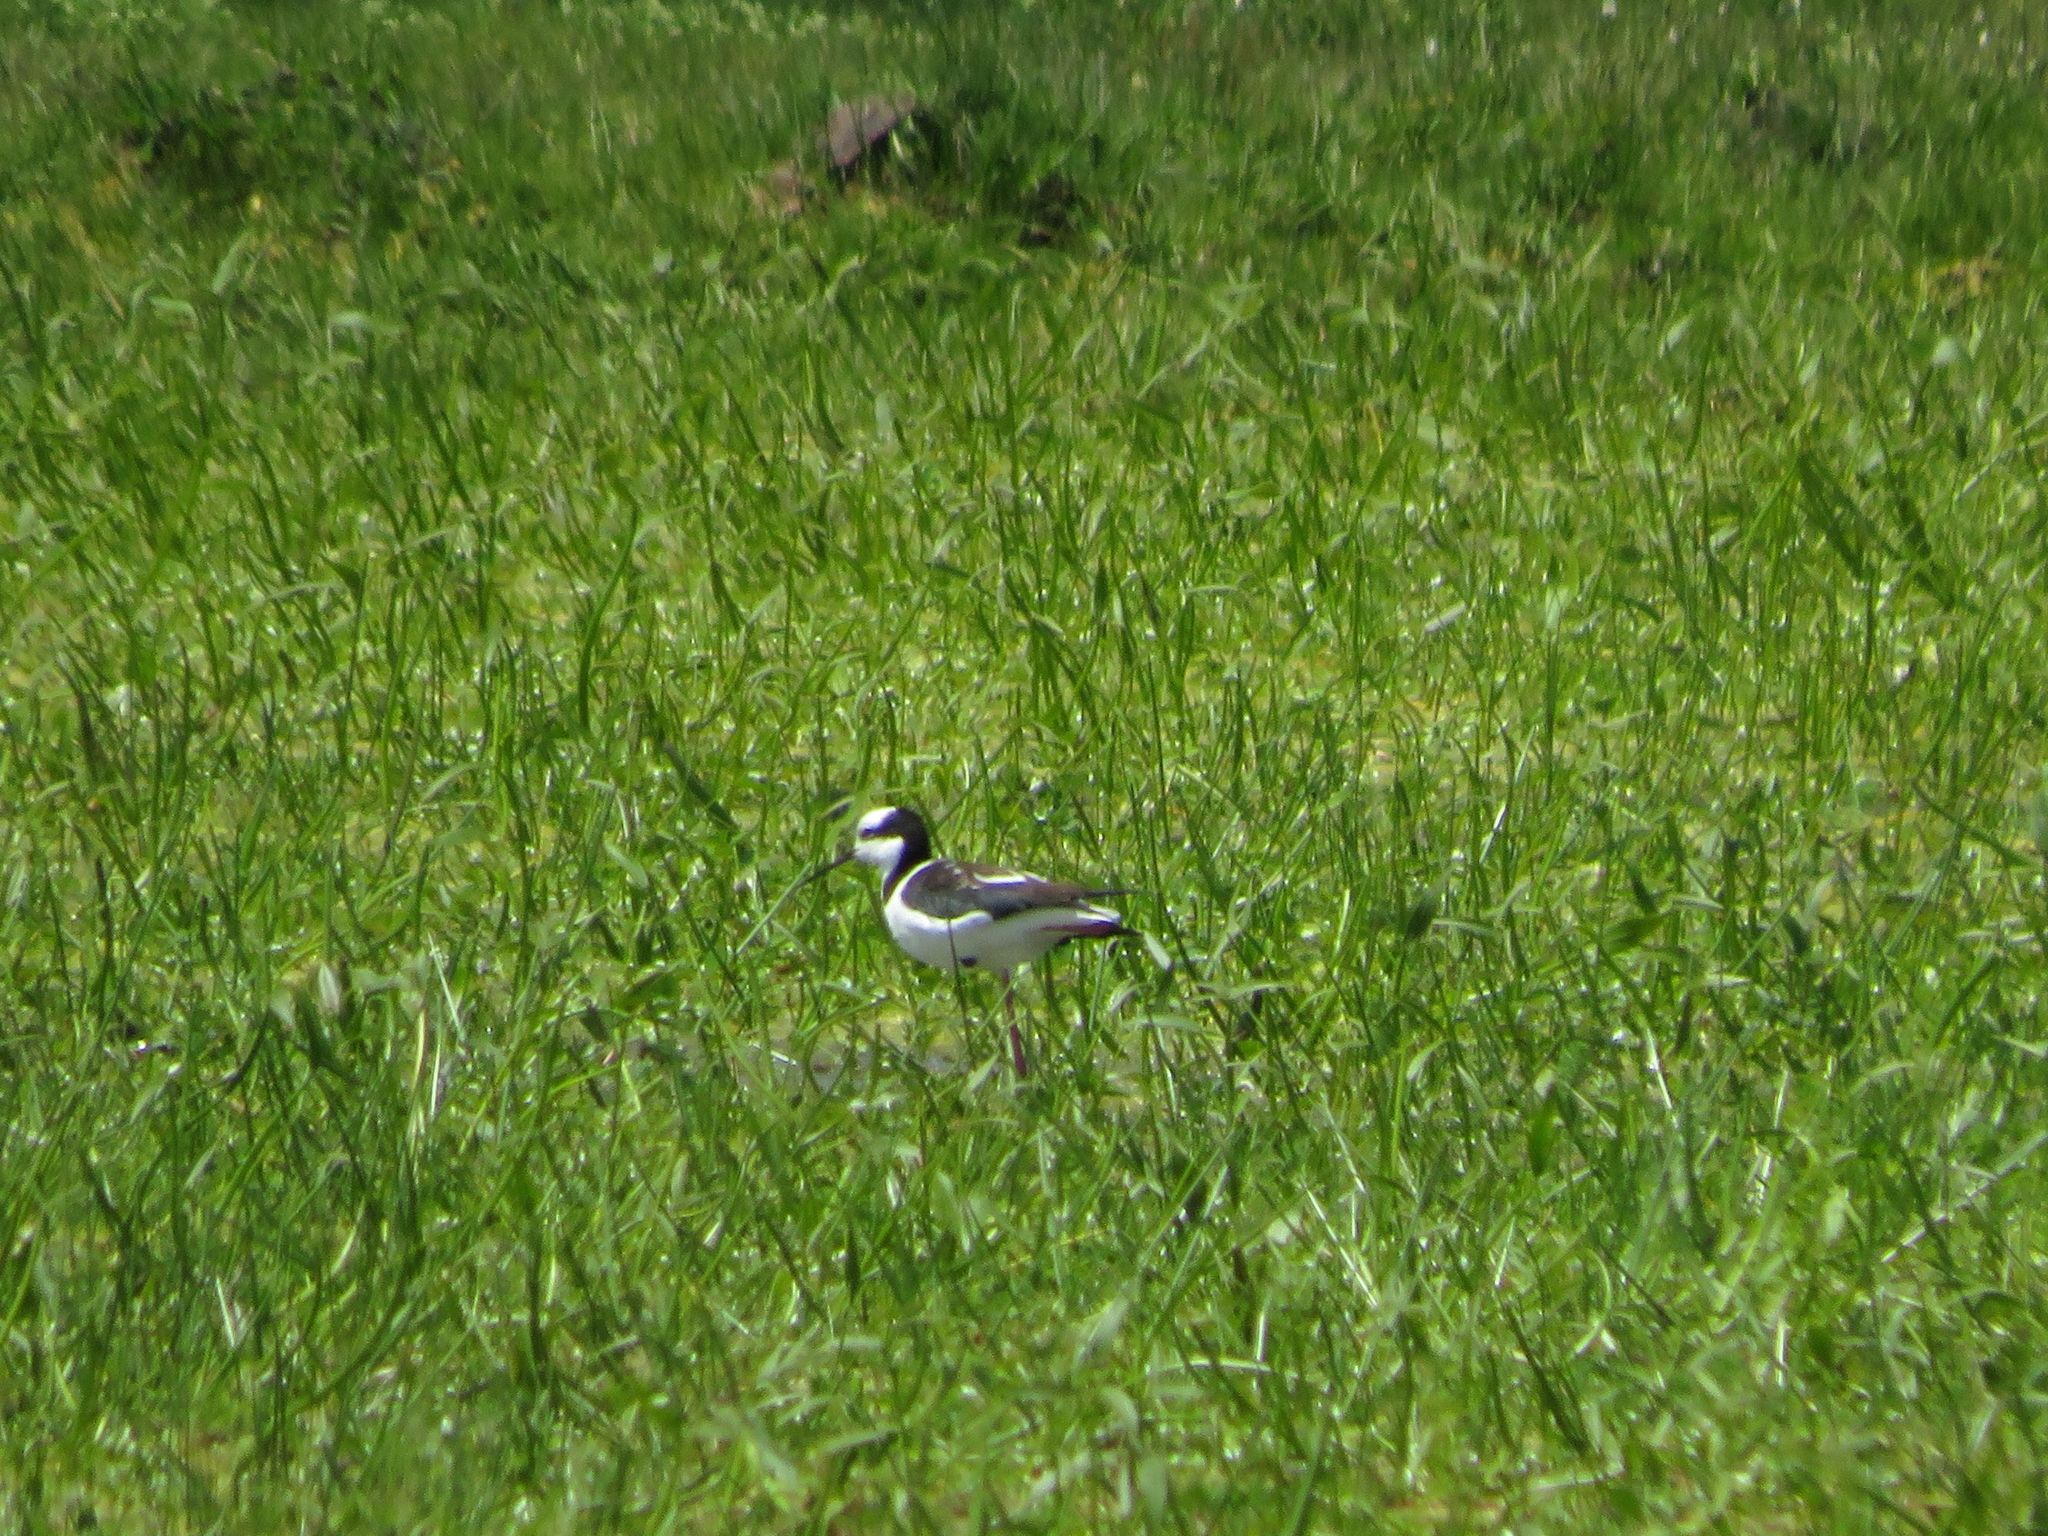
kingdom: Animalia
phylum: Chordata
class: Aves
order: Charadriiformes
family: Recurvirostridae
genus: Himantopus
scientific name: Himantopus mexicanus
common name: Black-necked stilt
